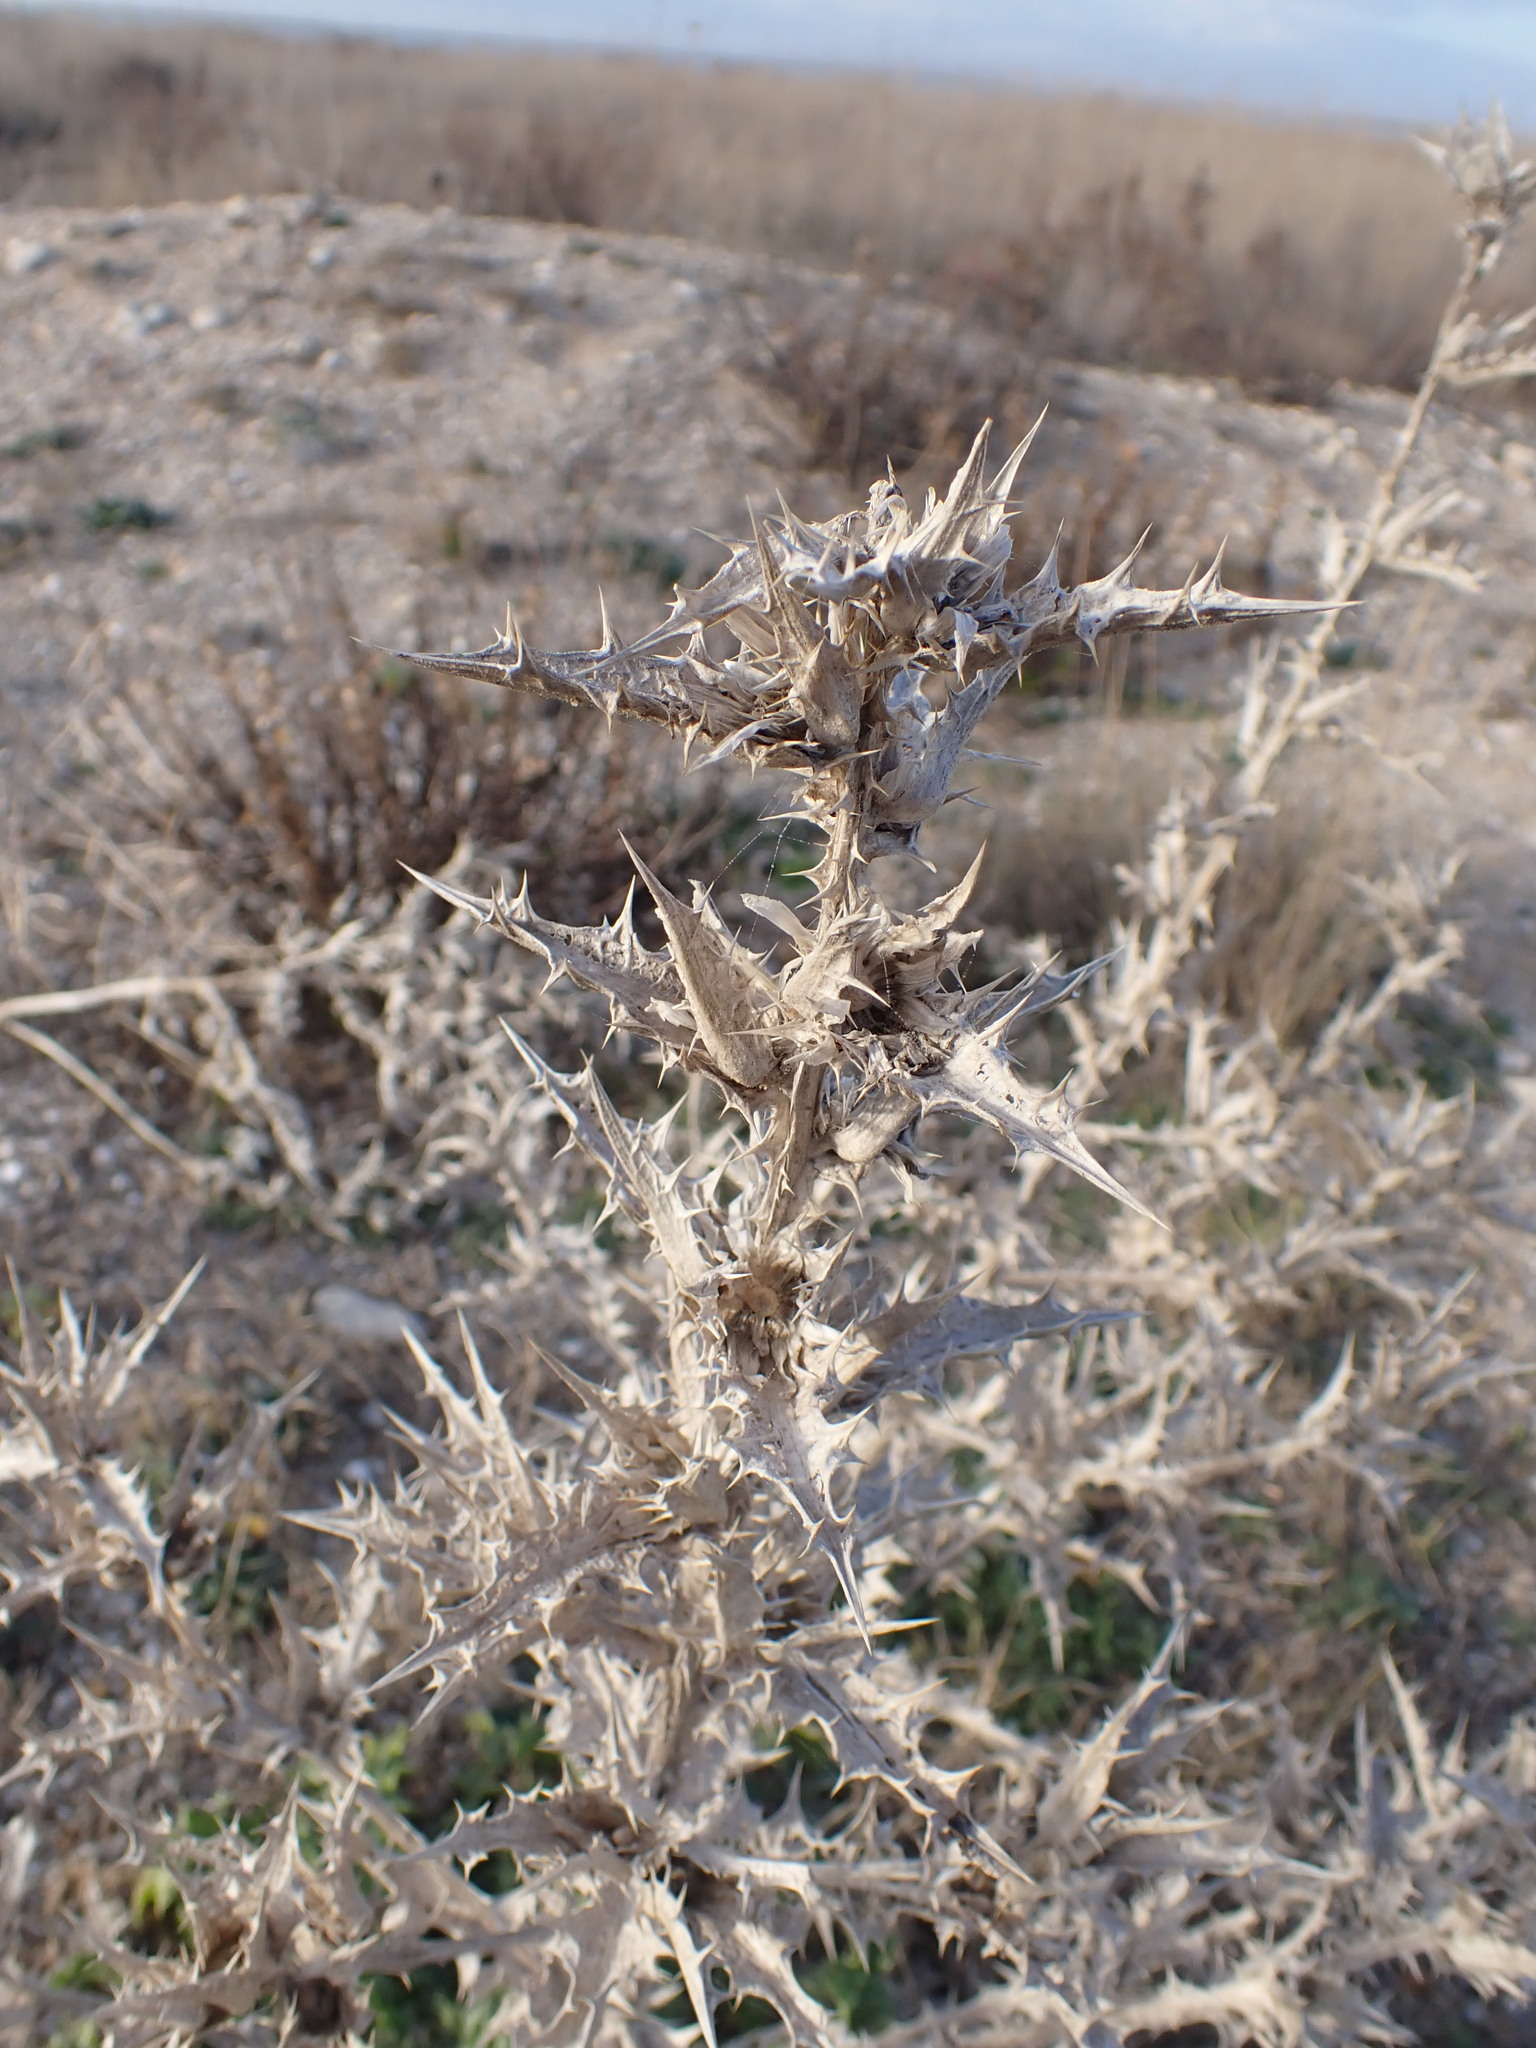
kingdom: Plantae
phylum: Tracheophyta
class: Magnoliopsida
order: Asterales
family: Asteraceae
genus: Scolymus
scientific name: Scolymus hispanicus
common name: Golden thistle
